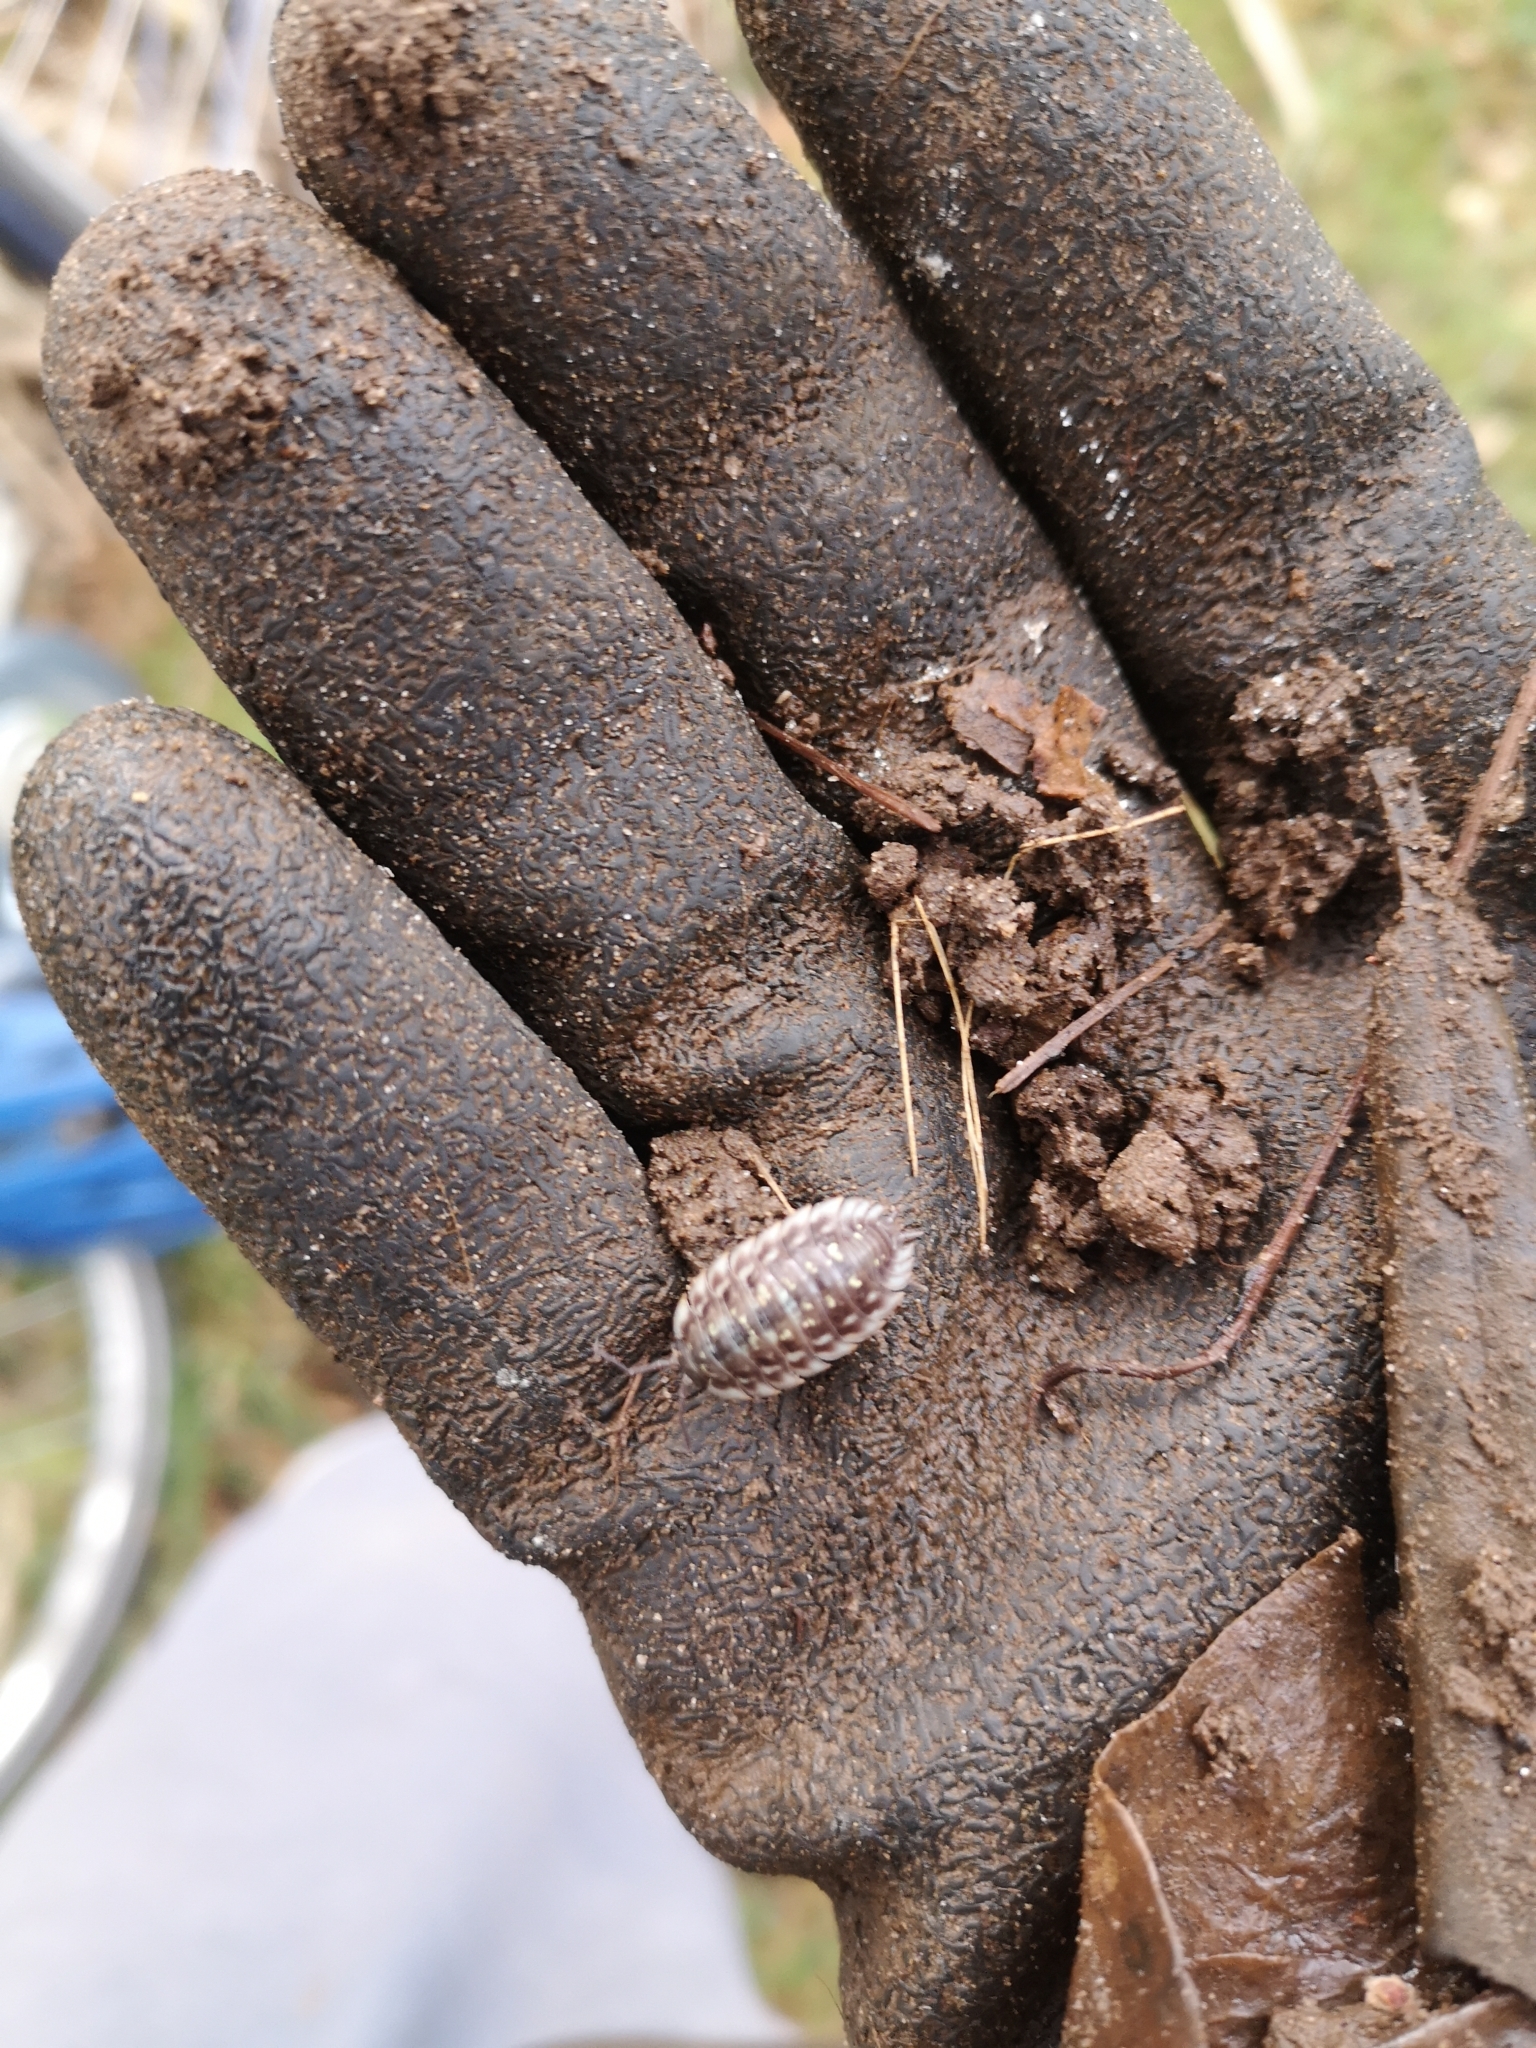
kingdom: Animalia
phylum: Arthropoda
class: Malacostraca
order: Isopoda
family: Oniscidae
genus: Oniscus
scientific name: Oniscus asellus
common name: Common shiny woodlouse
